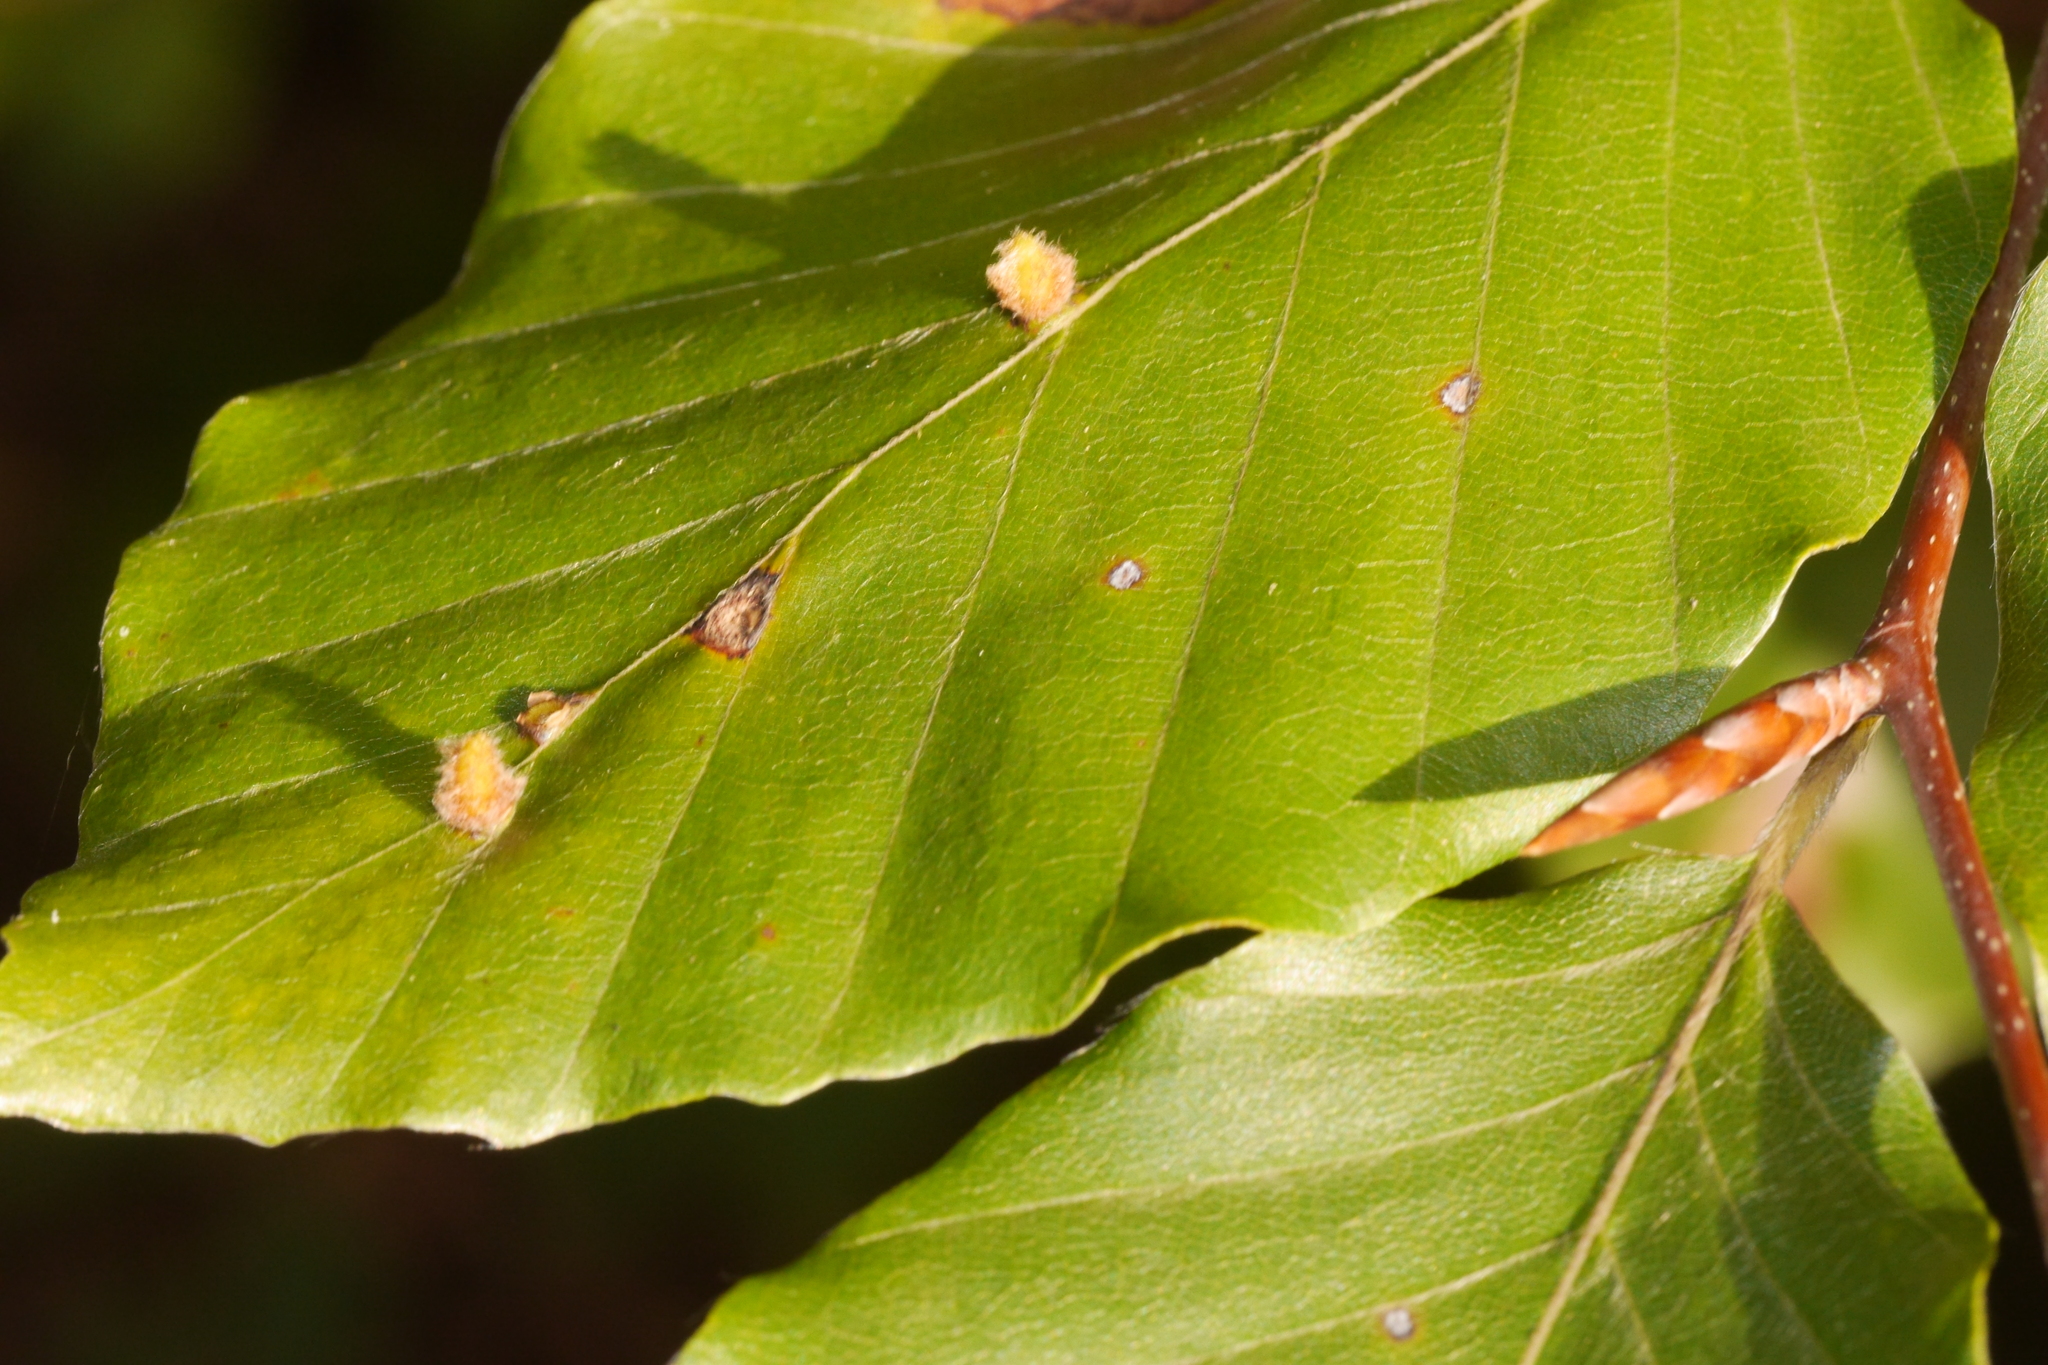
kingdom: Animalia
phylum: Arthropoda
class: Insecta
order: Diptera
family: Cecidomyiidae
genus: Mikiola
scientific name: Mikiola fagi
